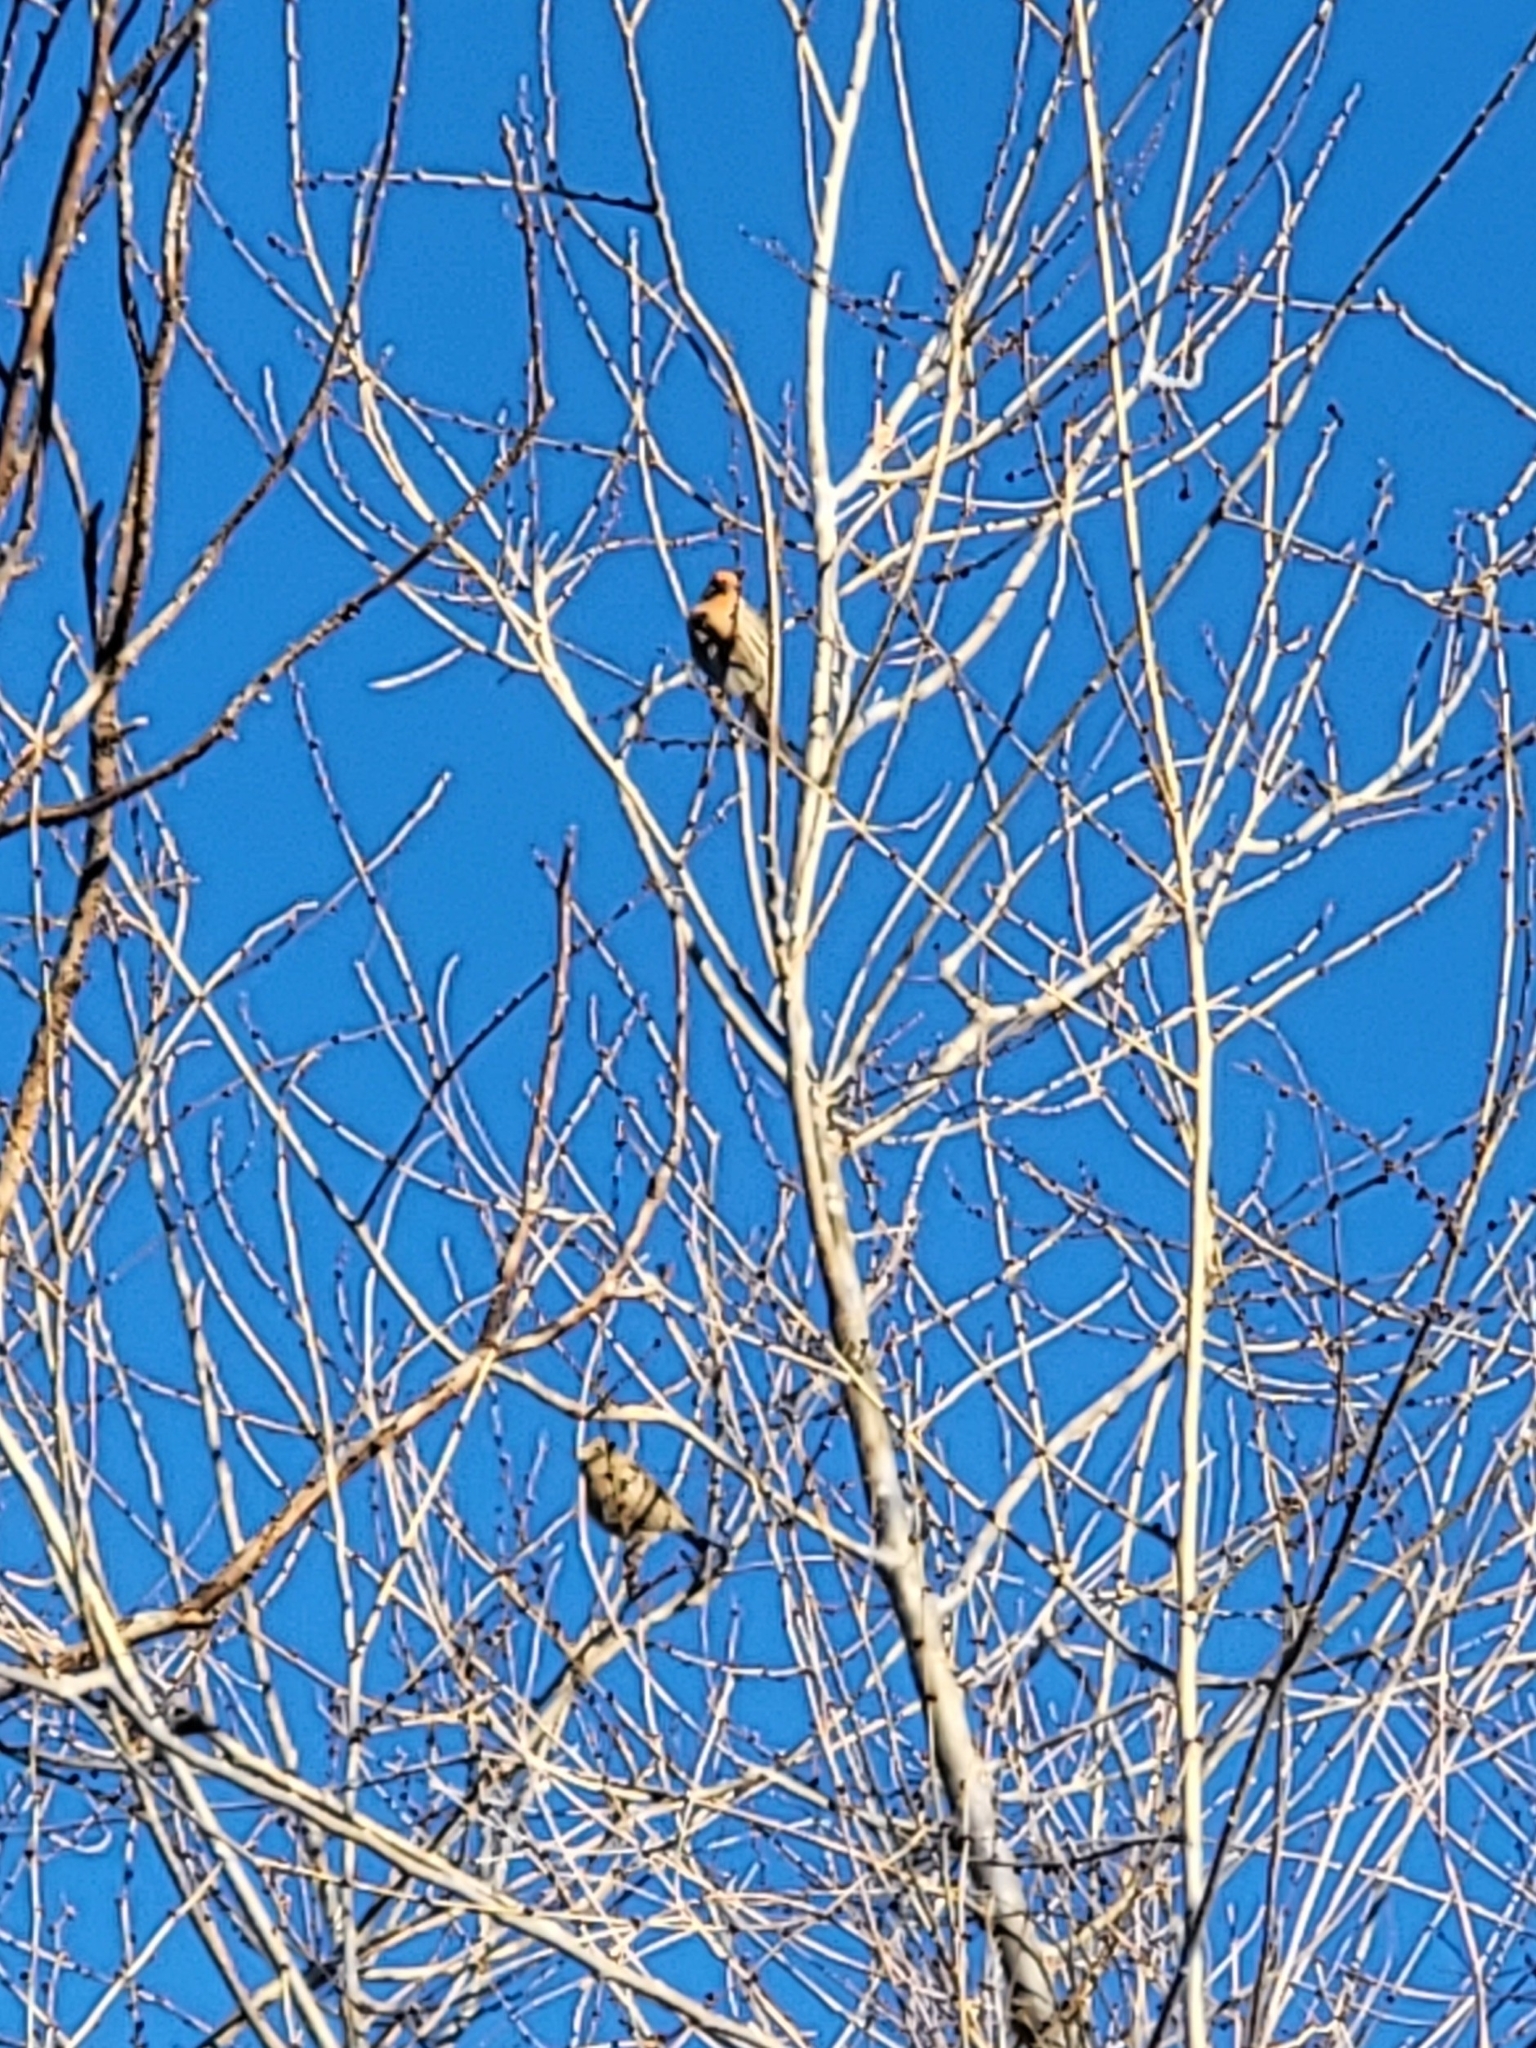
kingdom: Animalia
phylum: Chordata
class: Aves
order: Passeriformes
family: Fringillidae
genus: Haemorhous
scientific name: Haemorhous mexicanus
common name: House finch
